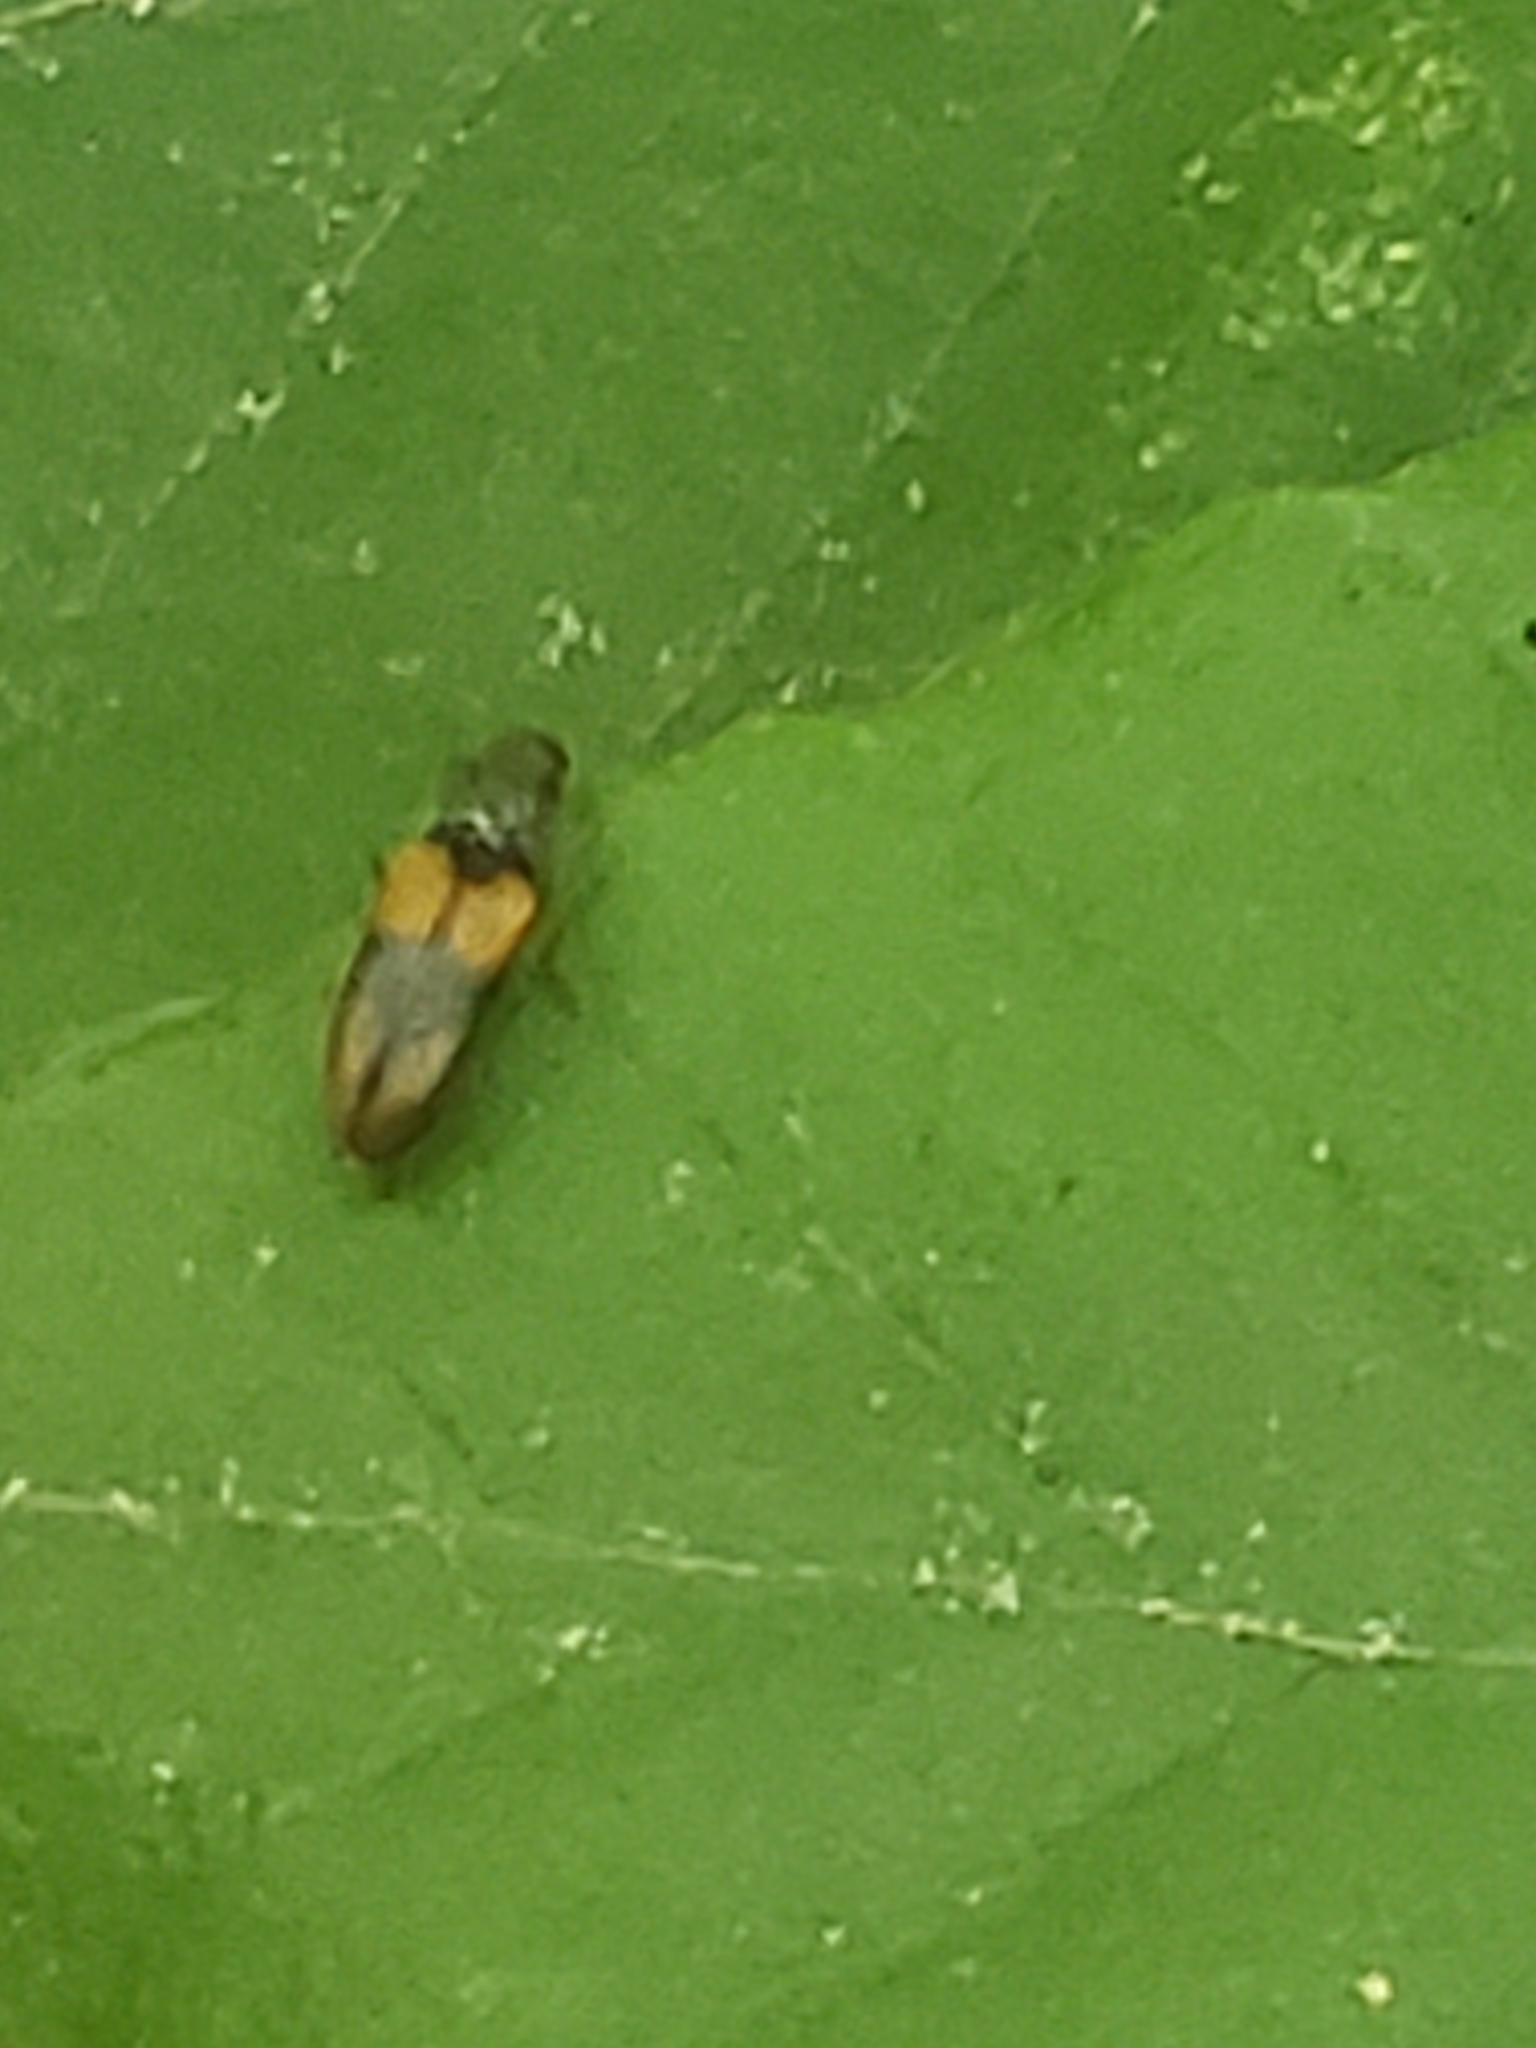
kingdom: Animalia
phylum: Arthropoda
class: Insecta
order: Coleoptera
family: Elateridae
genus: Horistonotus
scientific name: Horistonotus curiatus
